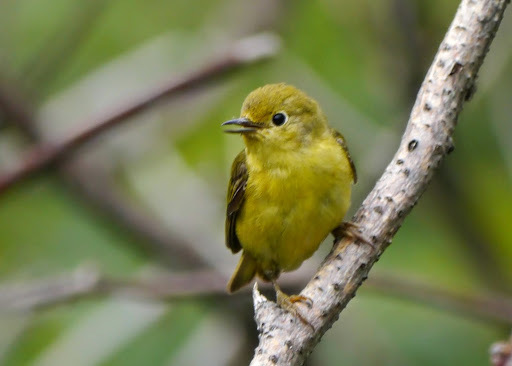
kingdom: Animalia
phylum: Chordata
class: Aves
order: Passeriformes
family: Parulidae
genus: Setophaga
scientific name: Setophaga petechia
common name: Yellow warbler
